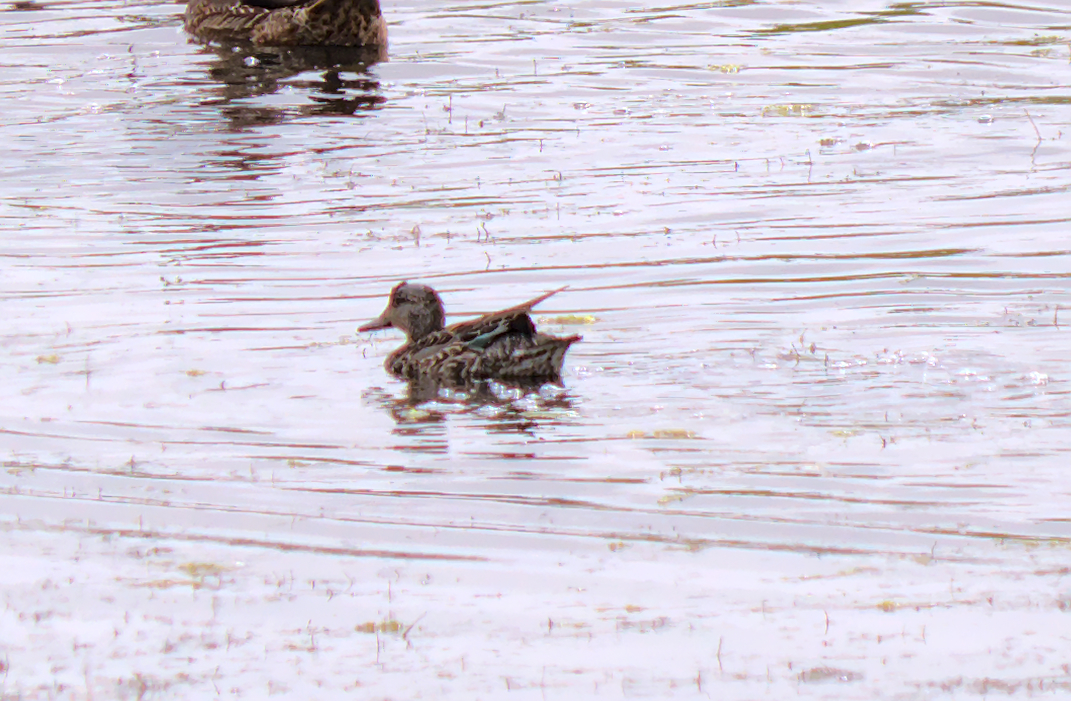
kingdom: Animalia
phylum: Chordata
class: Aves
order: Anseriformes
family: Anatidae
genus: Anas
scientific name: Anas crecca
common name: Eurasian teal
